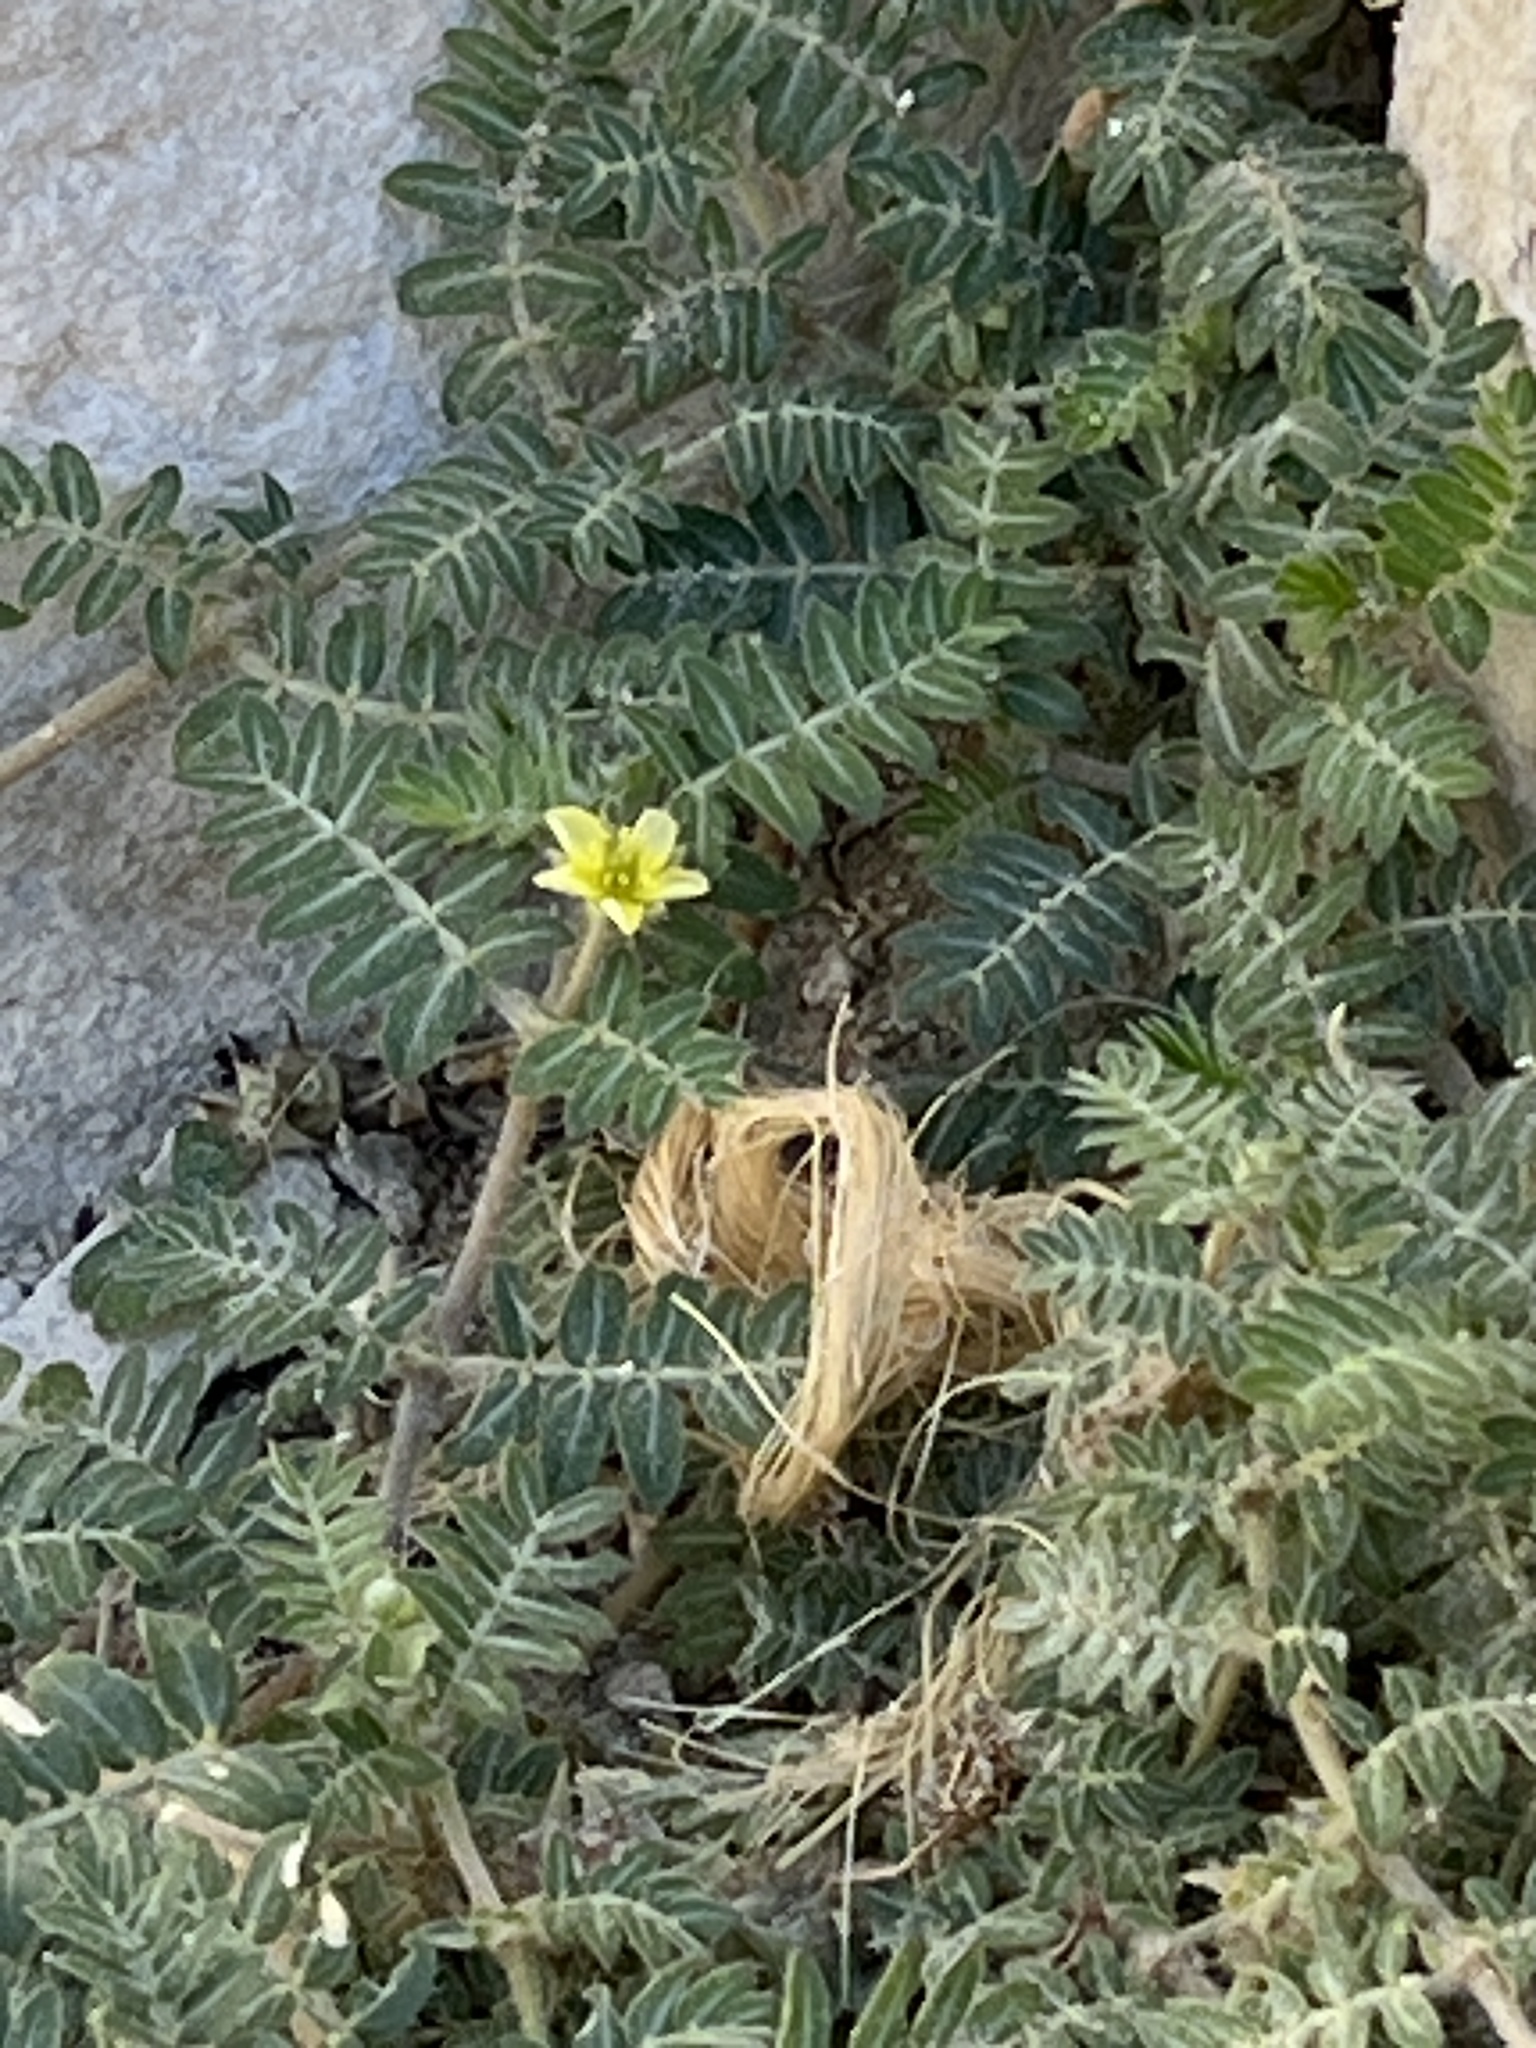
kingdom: Plantae
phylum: Tracheophyta
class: Magnoliopsida
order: Zygophyllales
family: Zygophyllaceae
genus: Tribulus
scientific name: Tribulus terrestris
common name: Puncturevine
